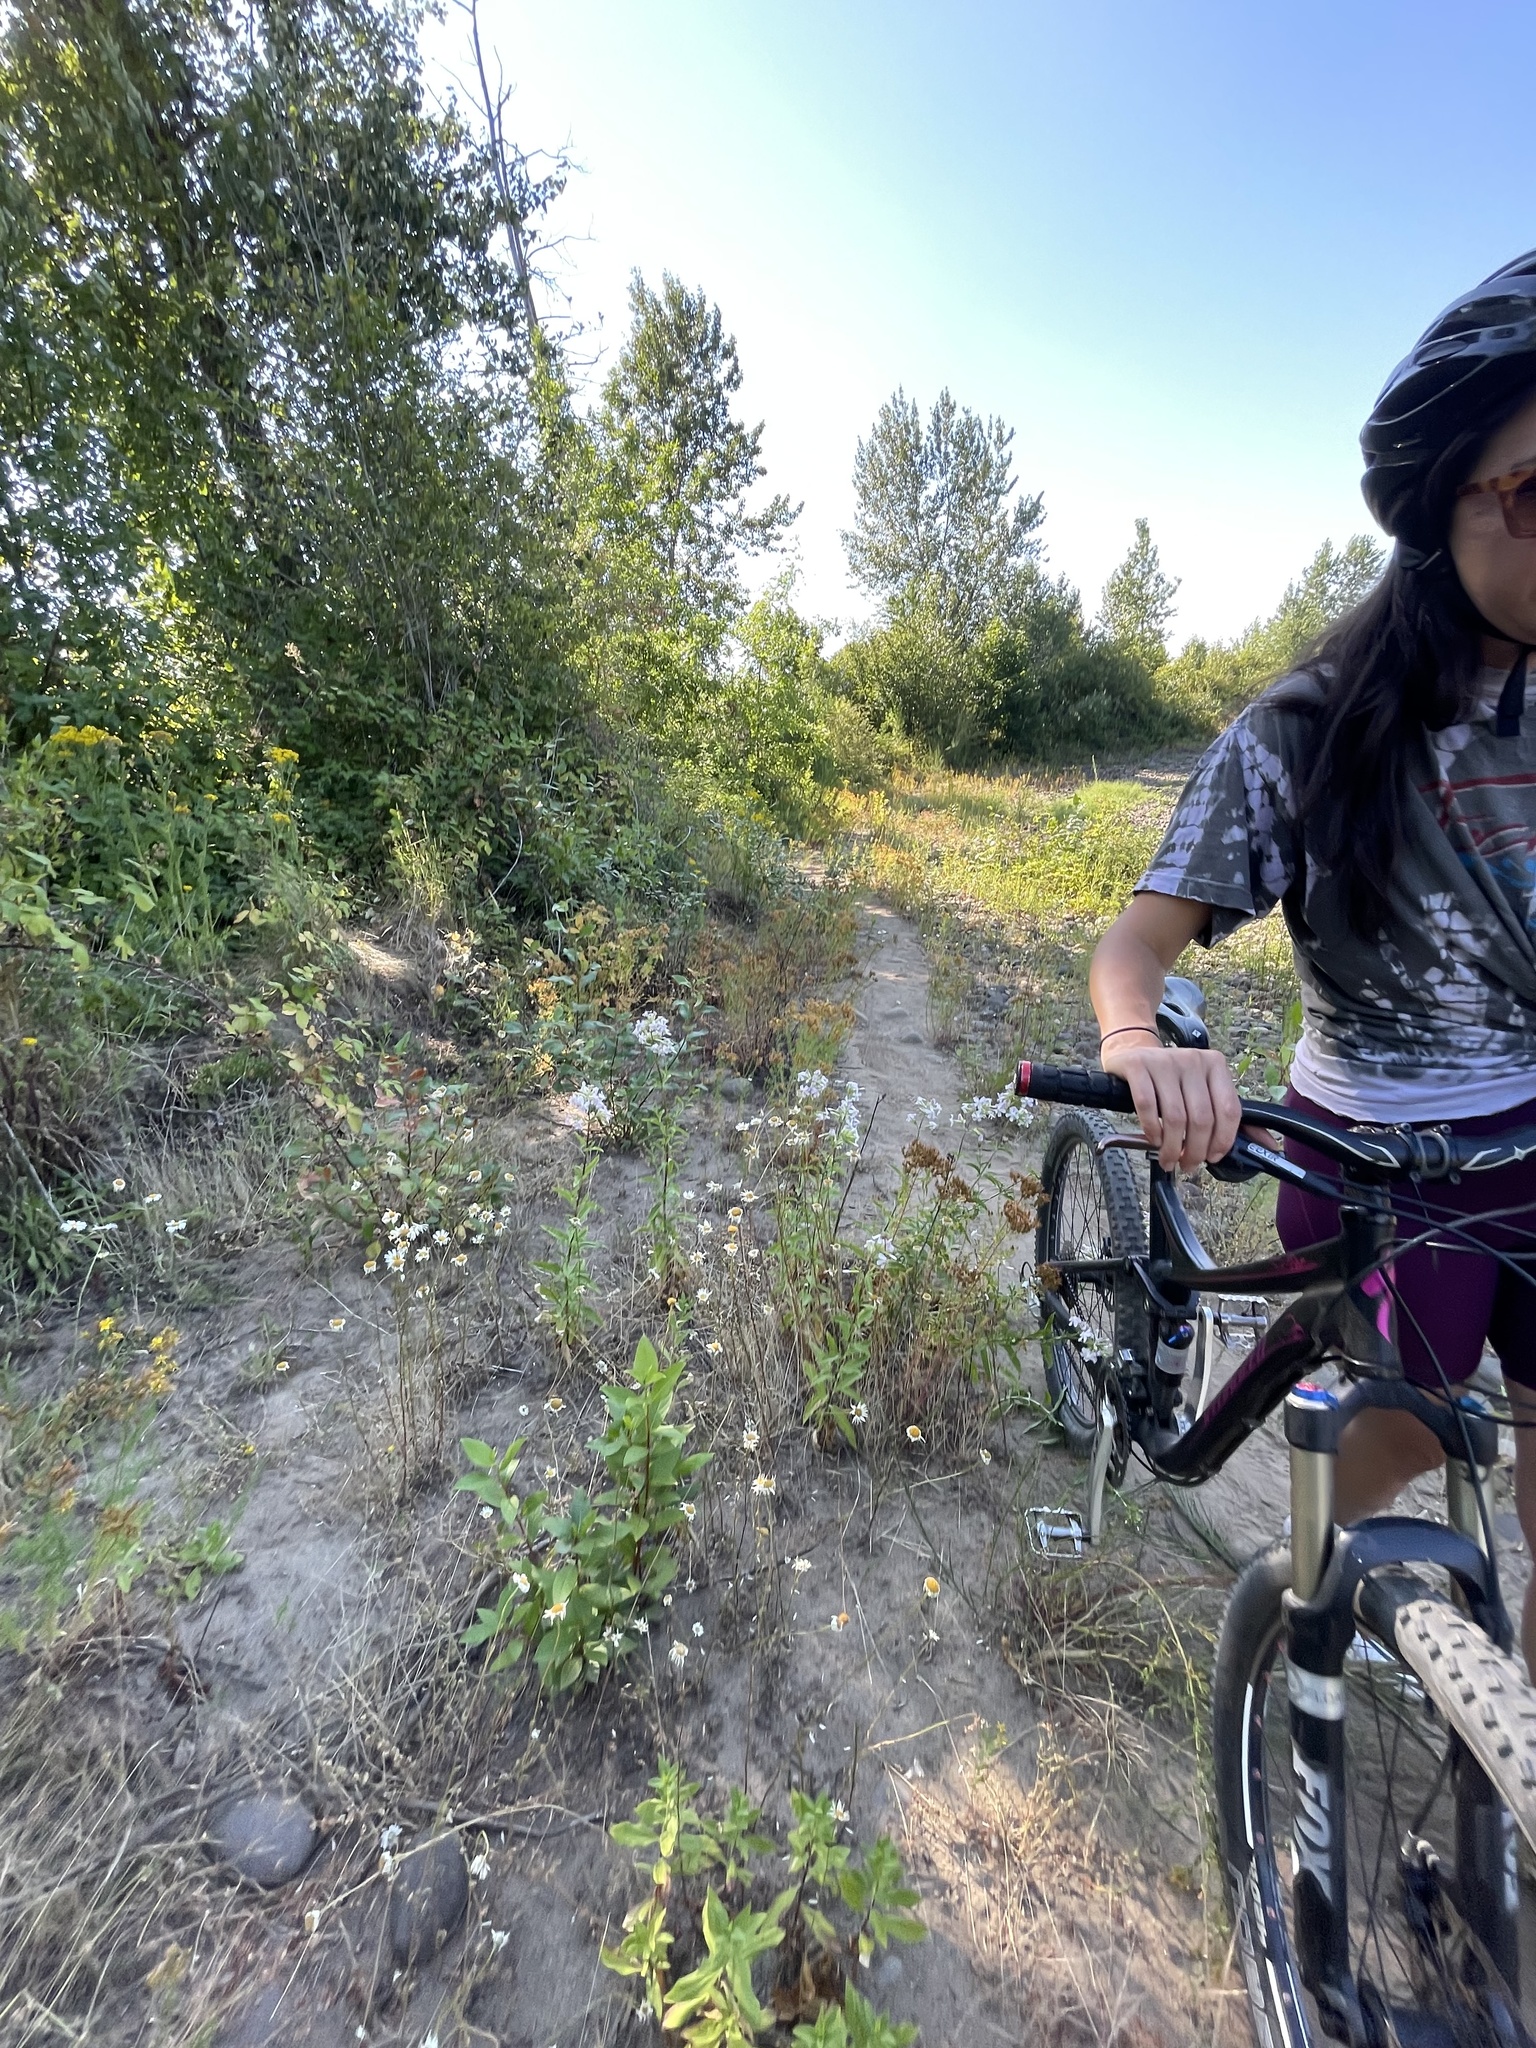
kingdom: Plantae
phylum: Tracheophyta
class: Magnoliopsida
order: Caryophyllales
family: Caryophyllaceae
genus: Saponaria
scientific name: Saponaria officinalis
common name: Soapwort
